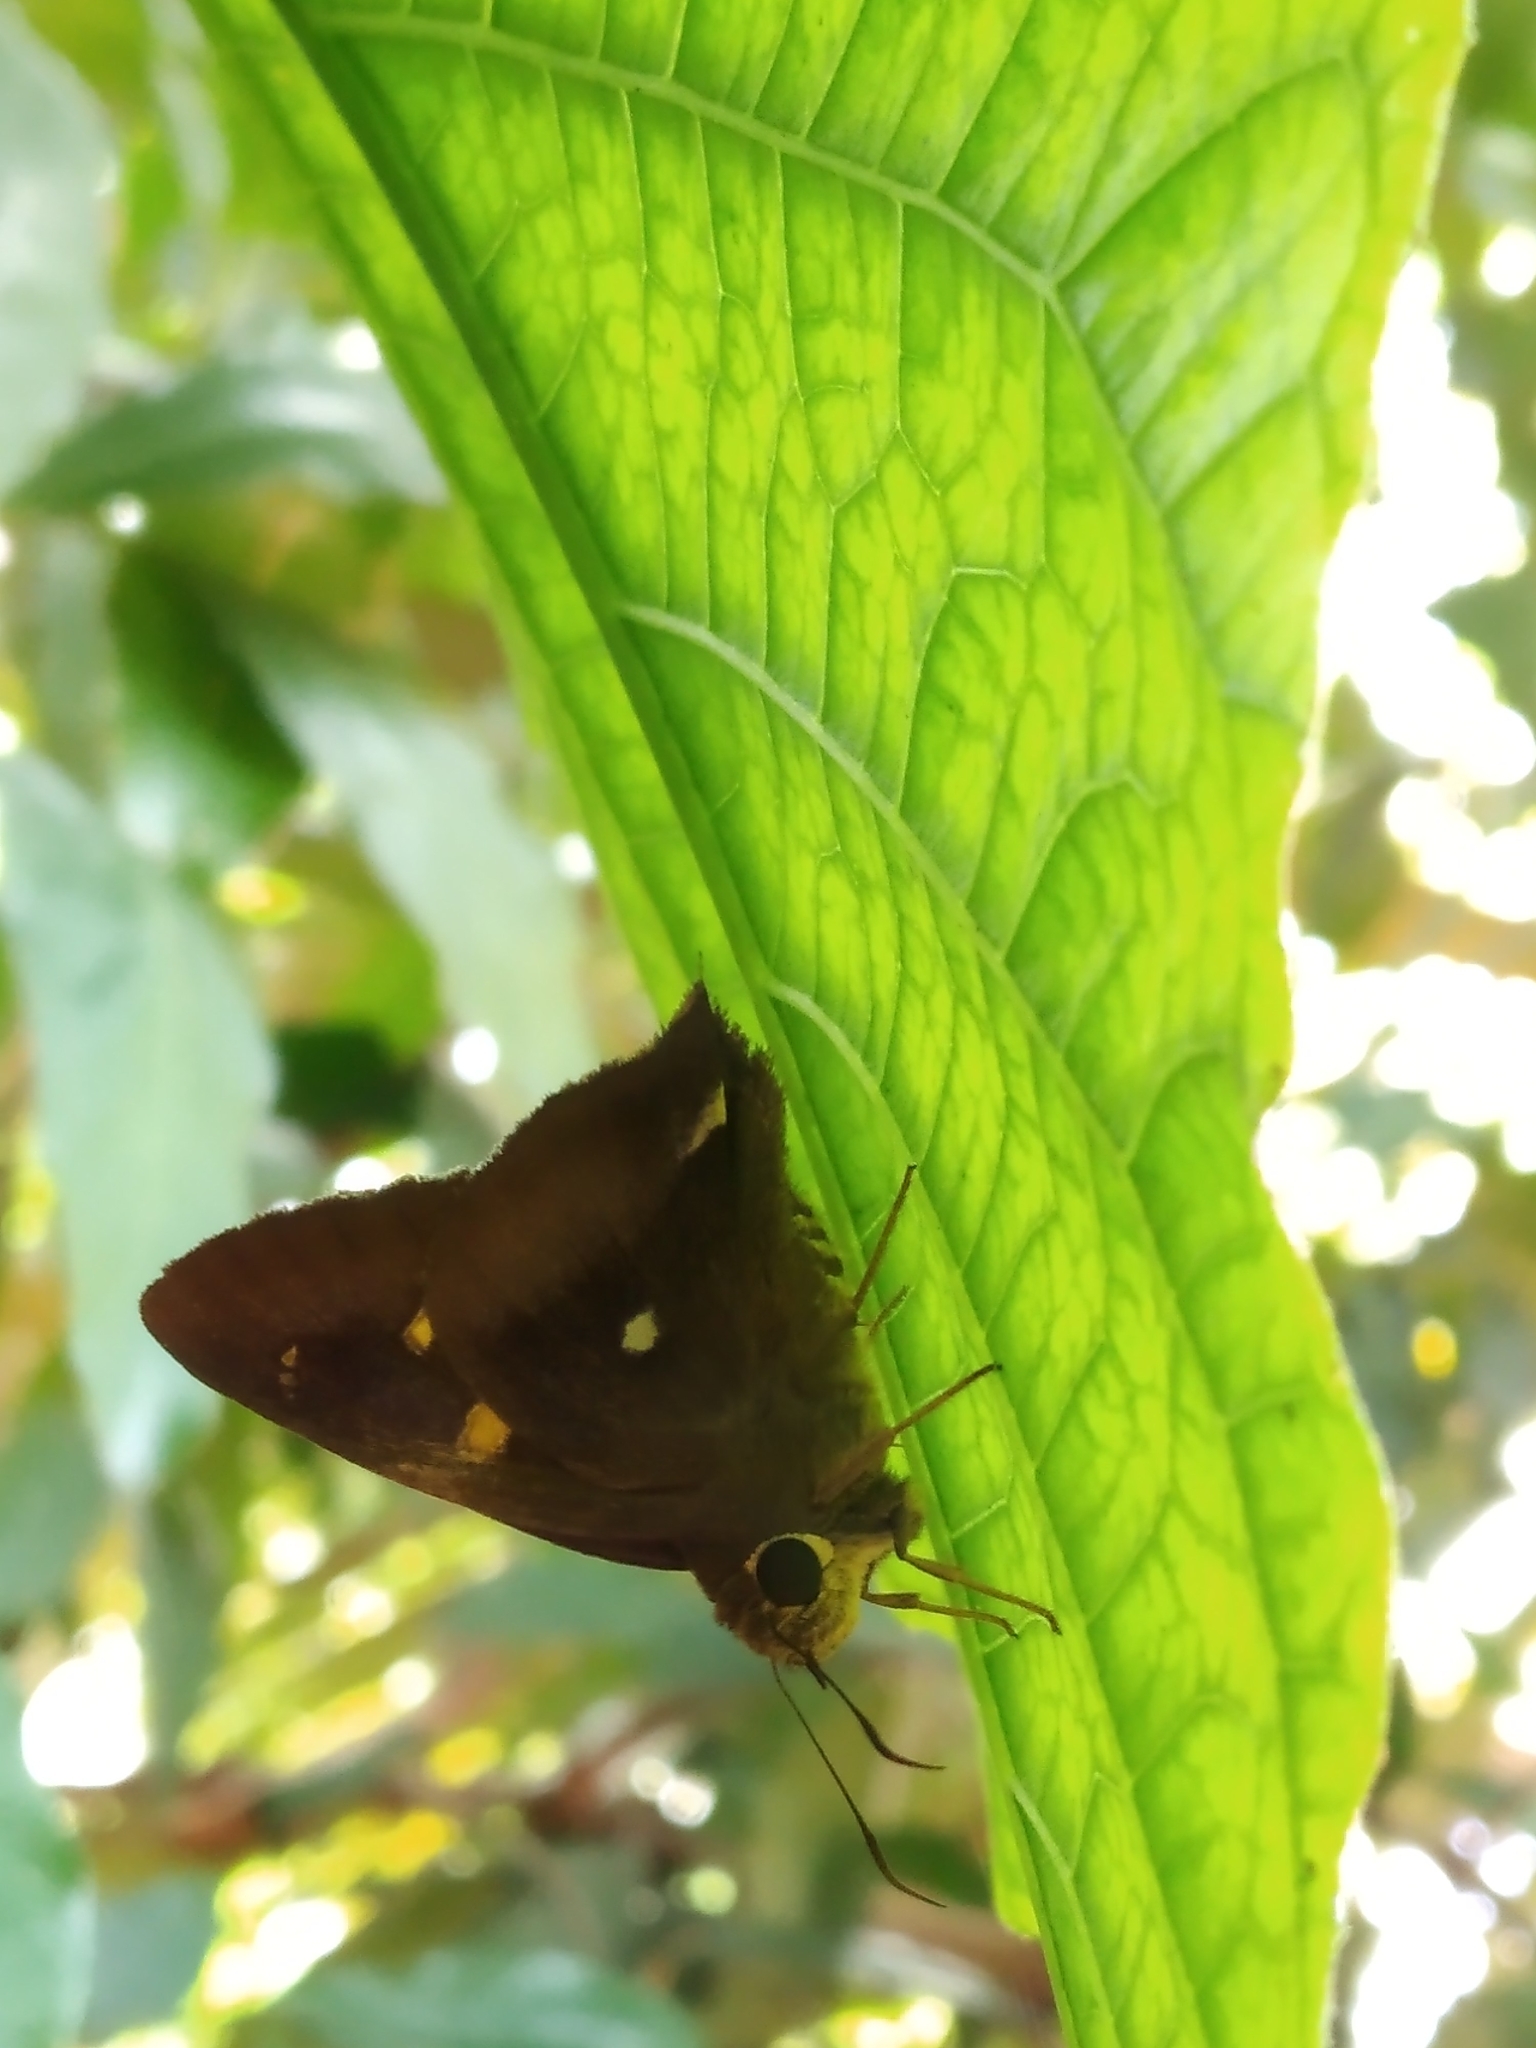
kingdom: Animalia
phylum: Arthropoda
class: Insecta
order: Lepidoptera
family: Hesperiidae
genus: Hasora
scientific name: Hasora badra
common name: Common awl
